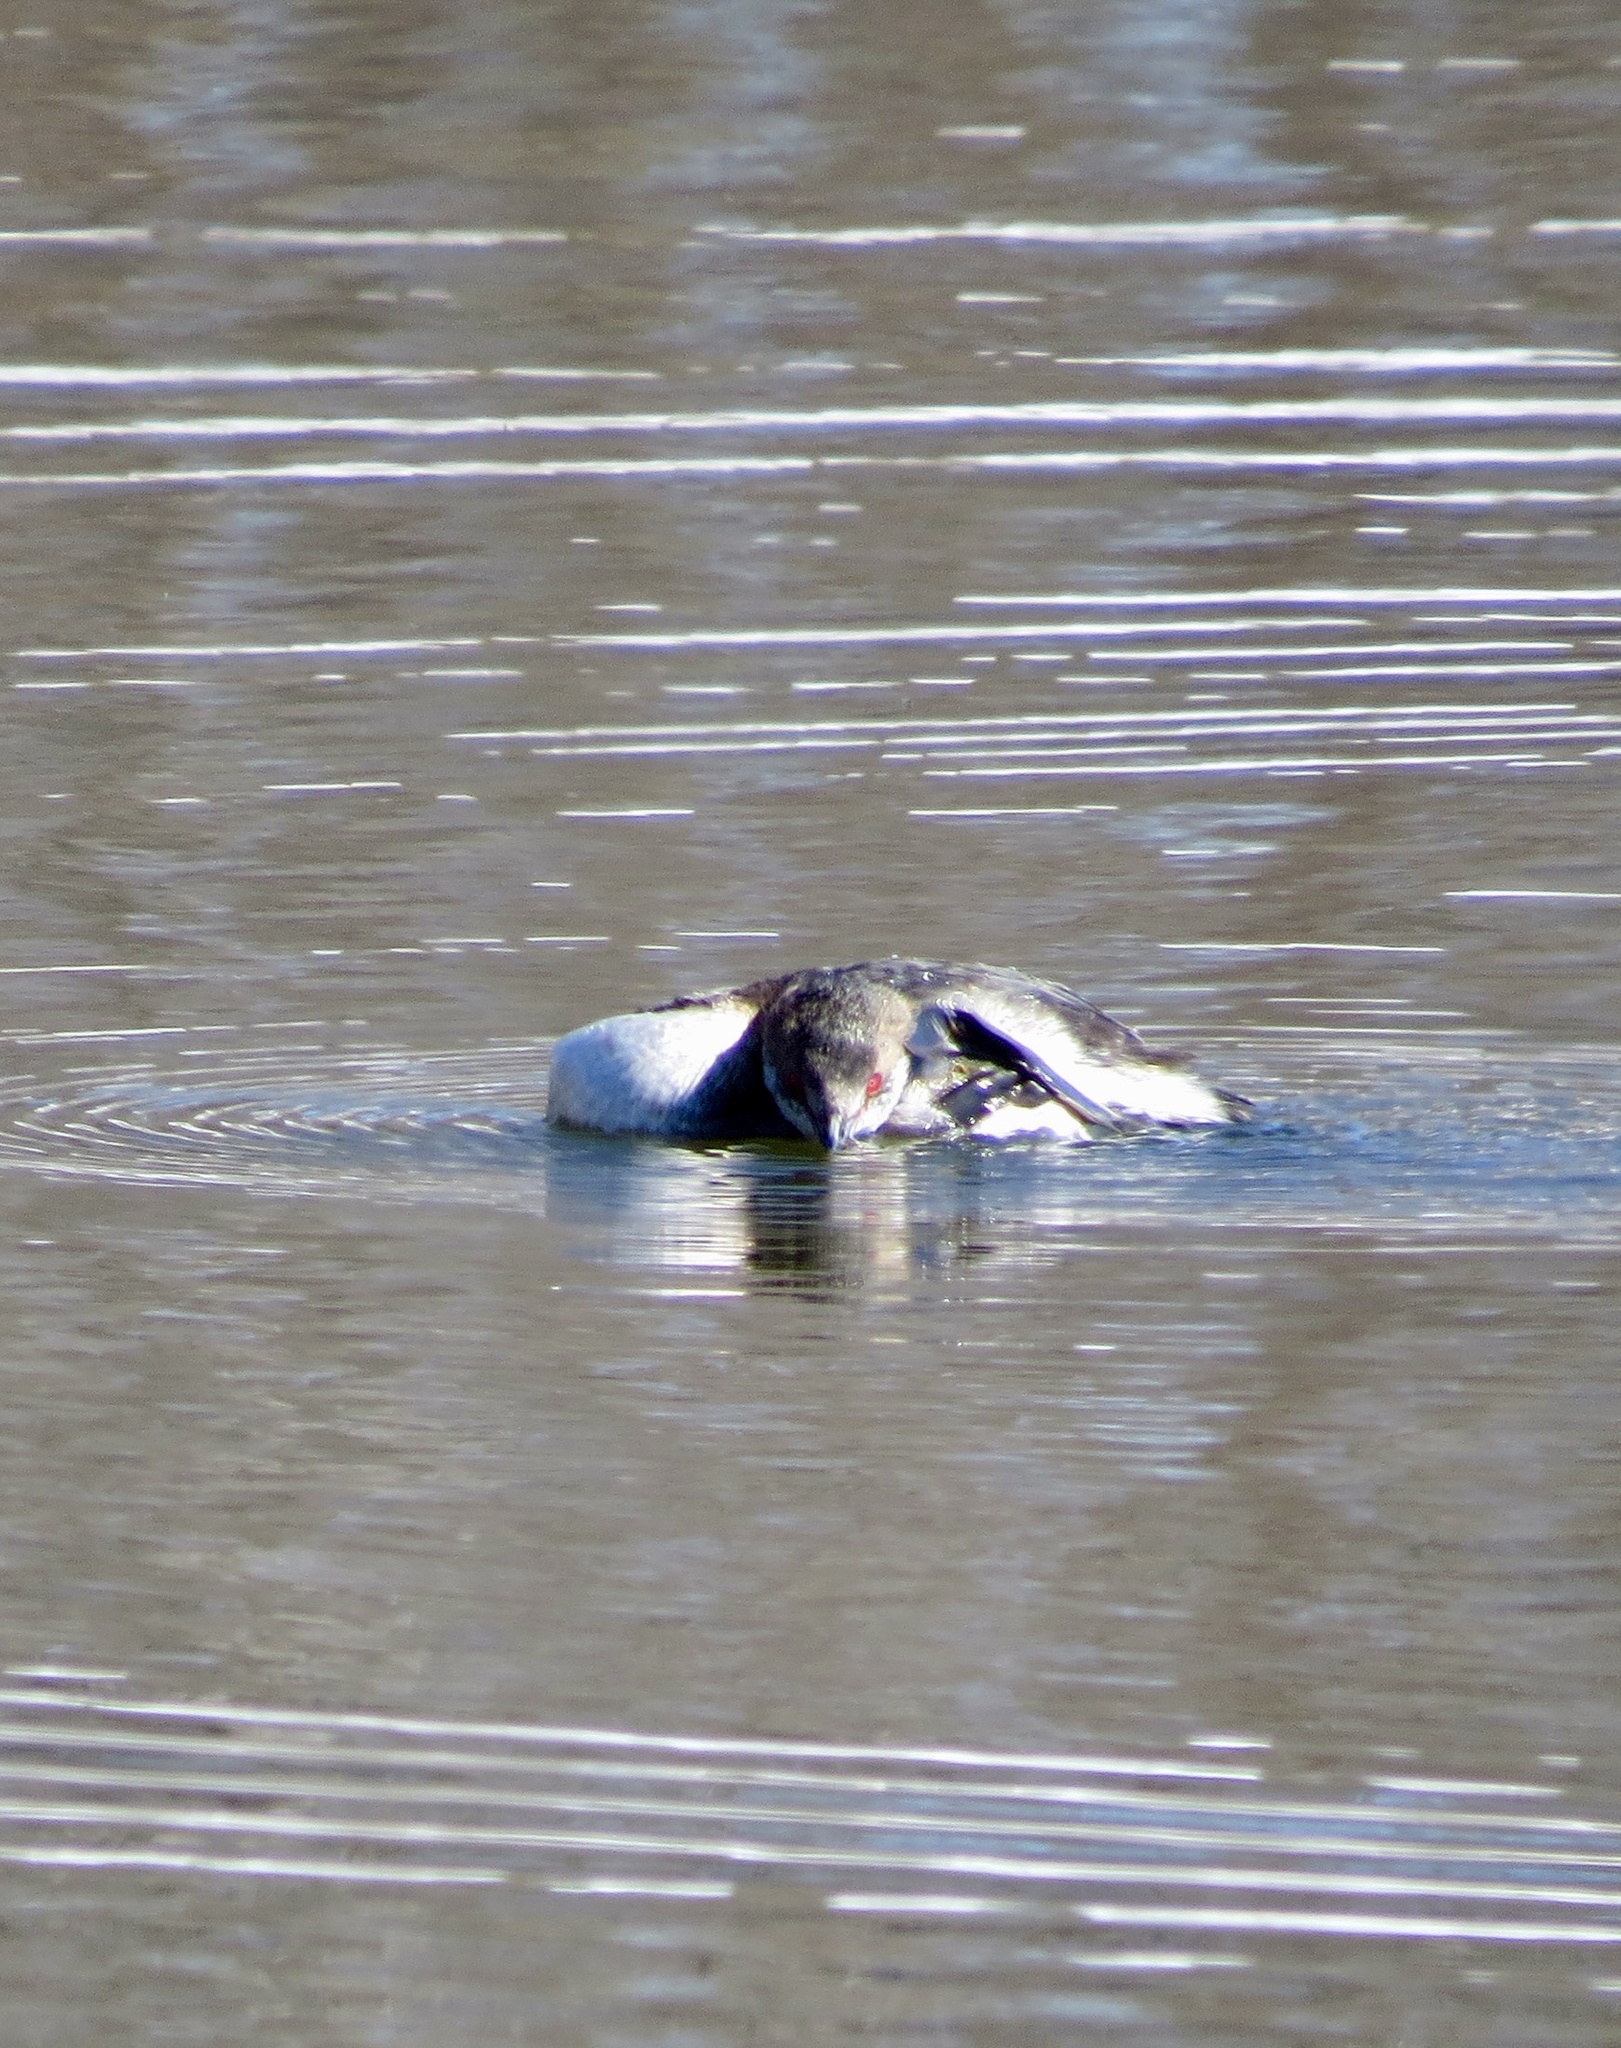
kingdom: Animalia
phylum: Chordata
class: Aves
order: Podicipediformes
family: Podicipedidae
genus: Podiceps
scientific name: Podiceps auritus
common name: Horned grebe
